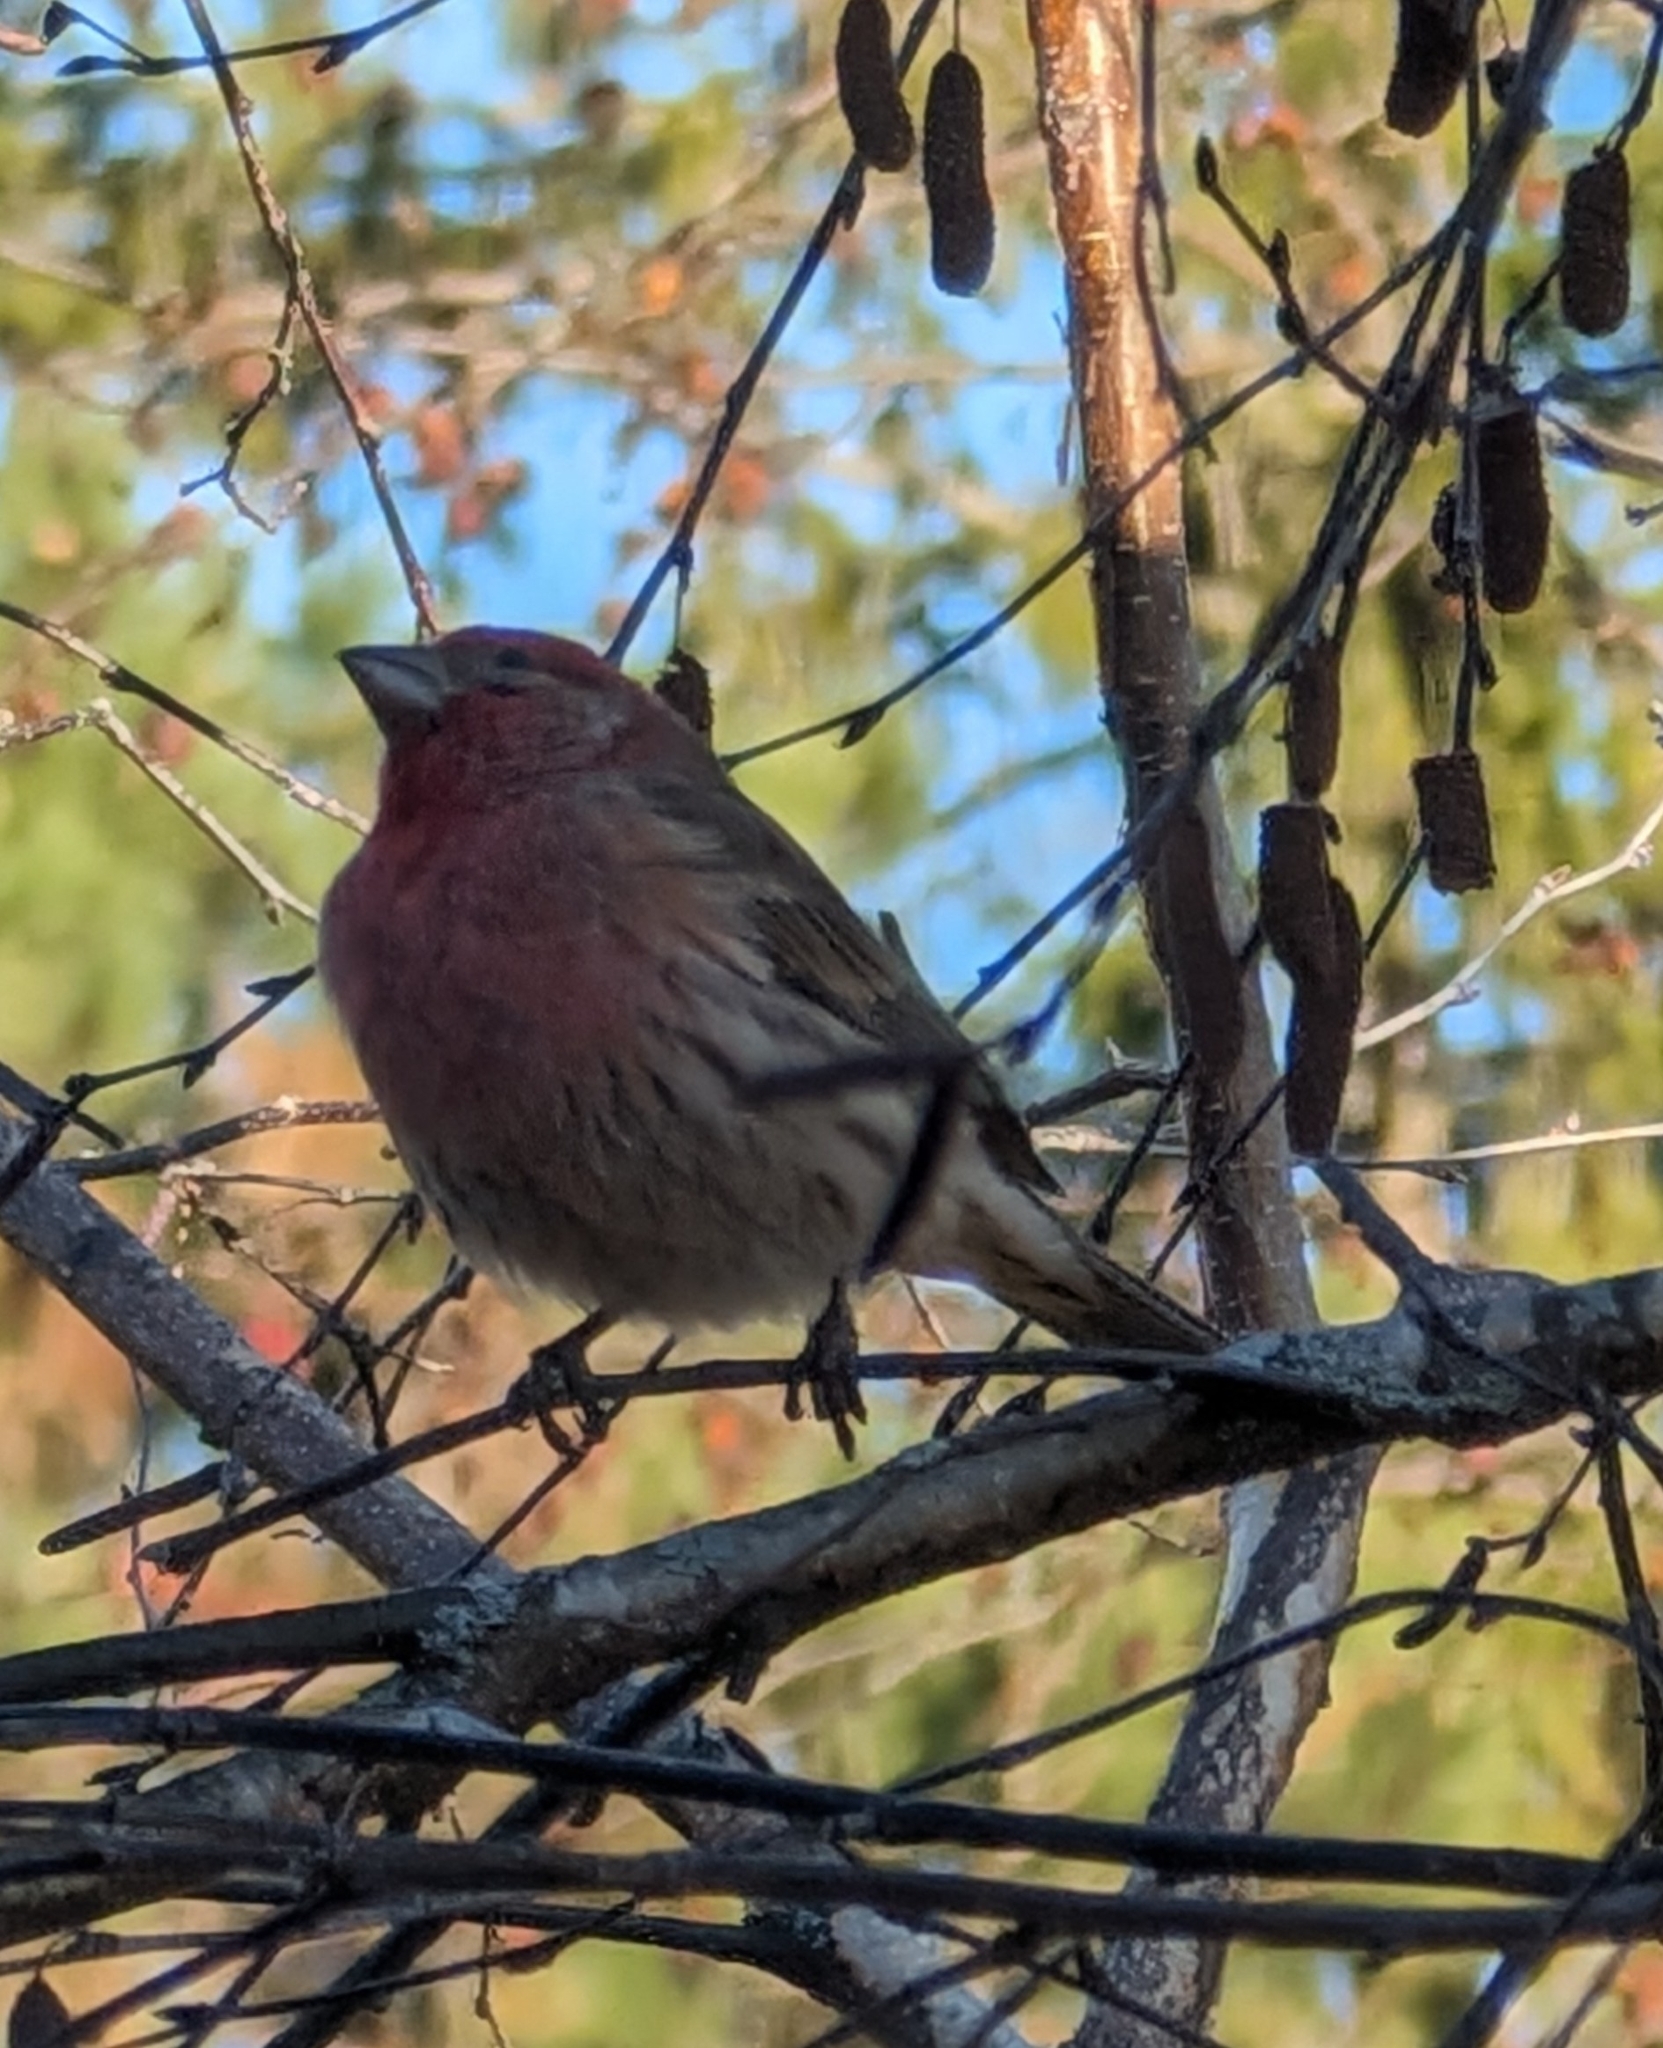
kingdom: Animalia
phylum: Chordata
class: Aves
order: Passeriformes
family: Fringillidae
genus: Haemorhous
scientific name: Haemorhous mexicanus
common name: House finch
